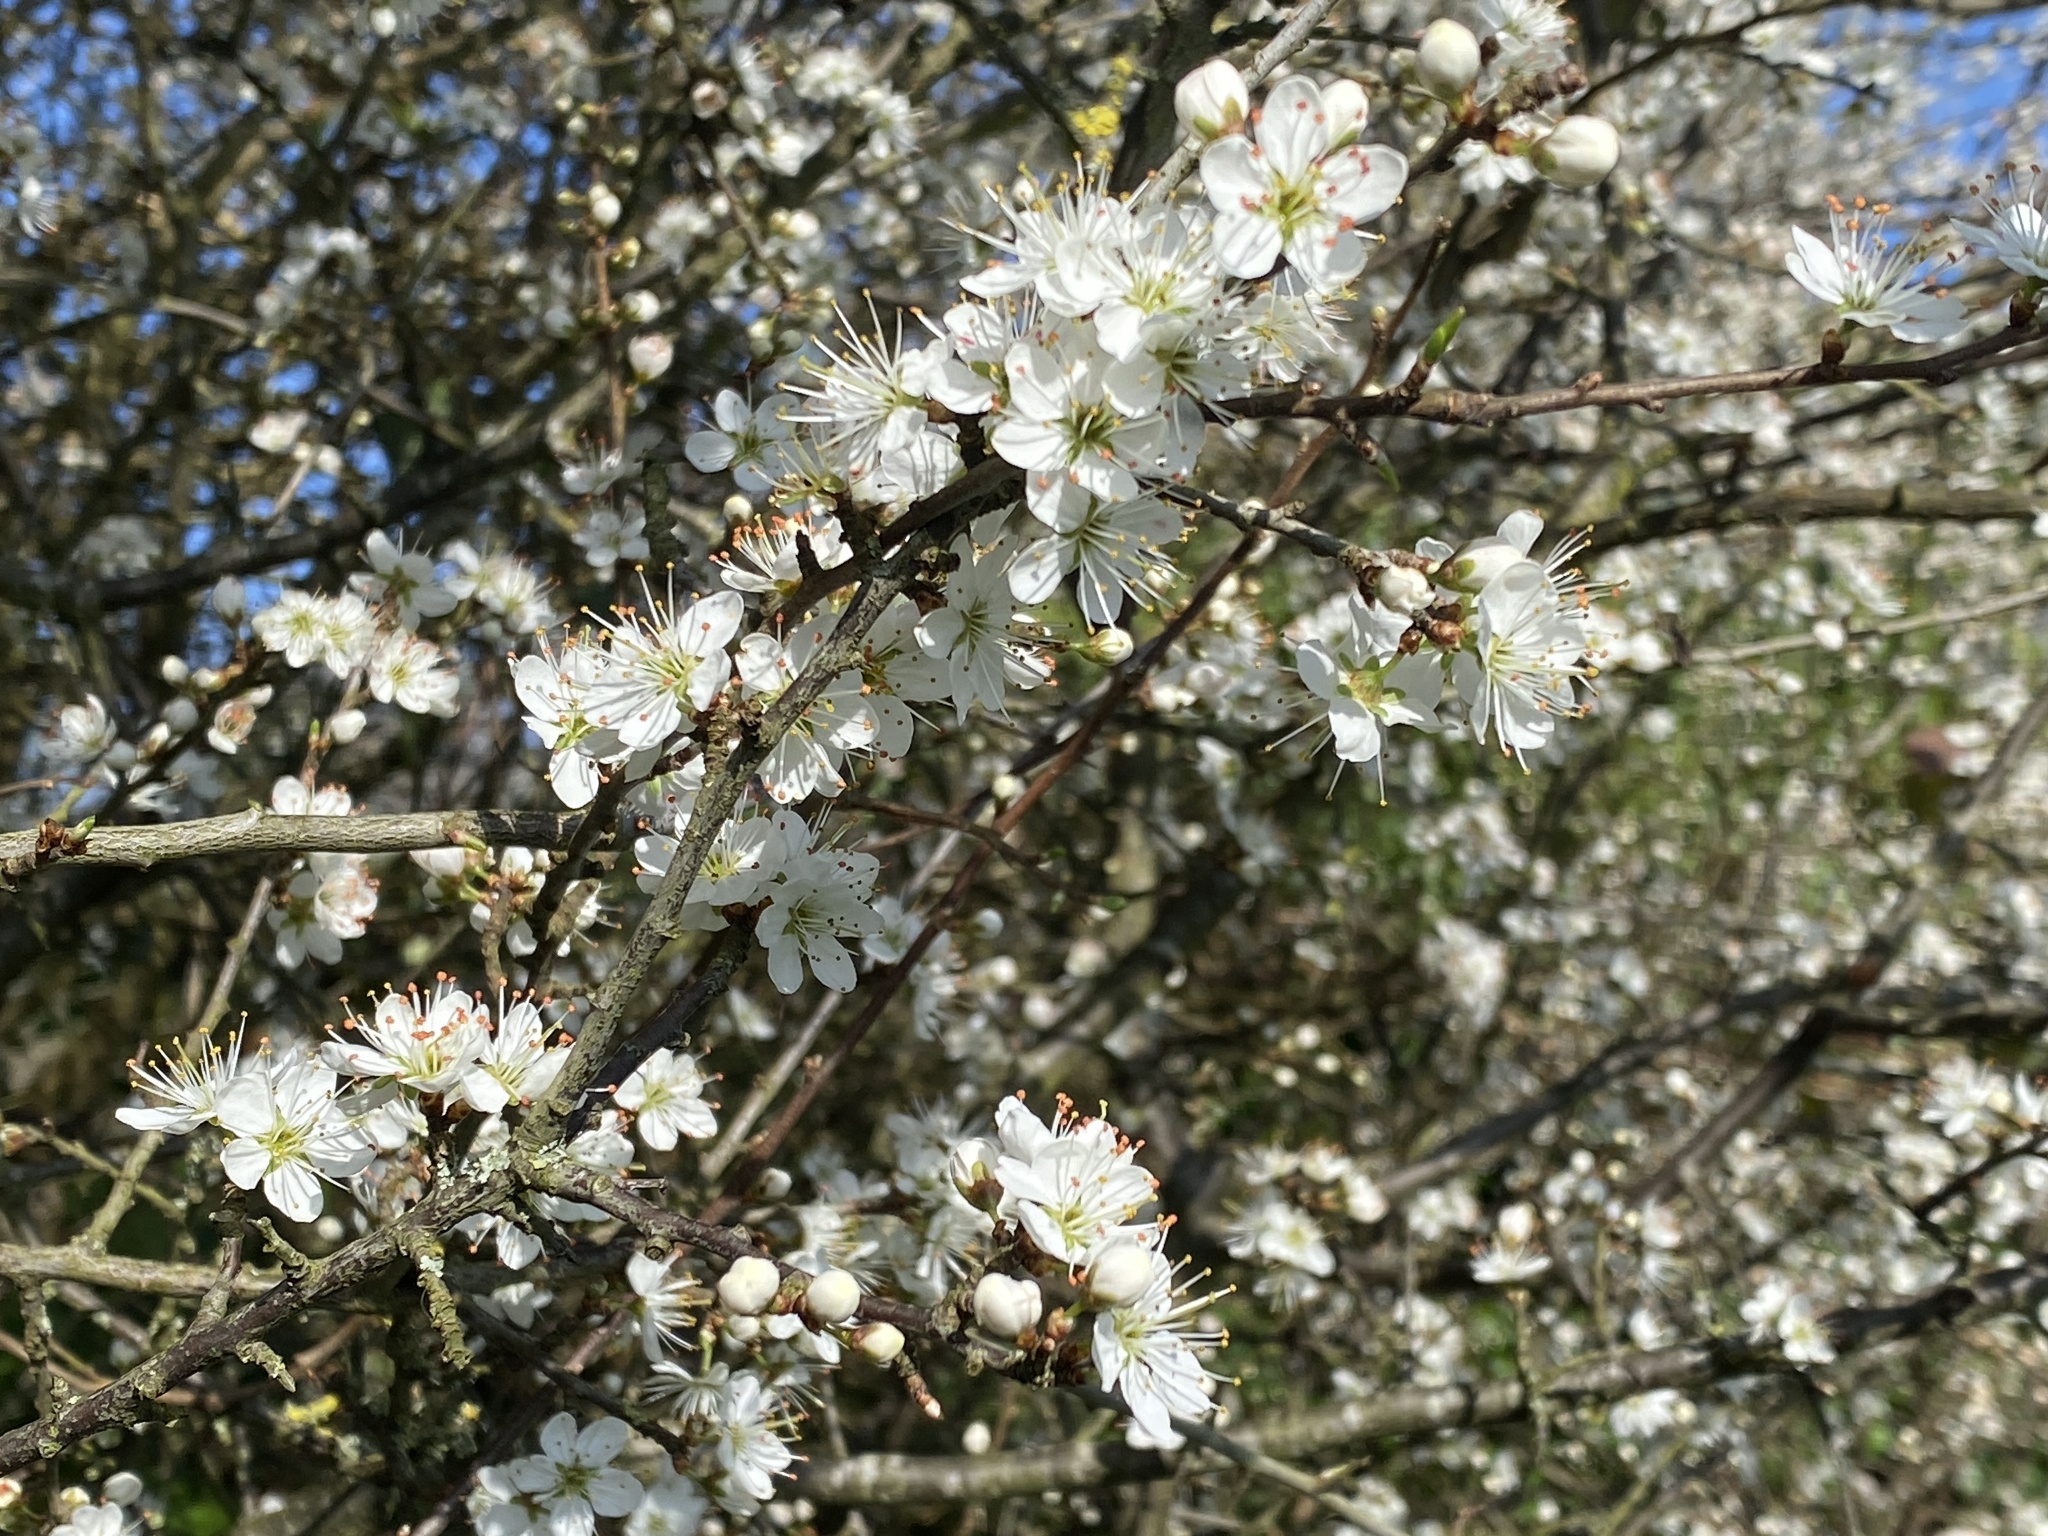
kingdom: Plantae
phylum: Tracheophyta
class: Magnoliopsida
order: Rosales
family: Rosaceae
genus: Prunus
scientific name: Prunus spinosa
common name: Blackthorn
